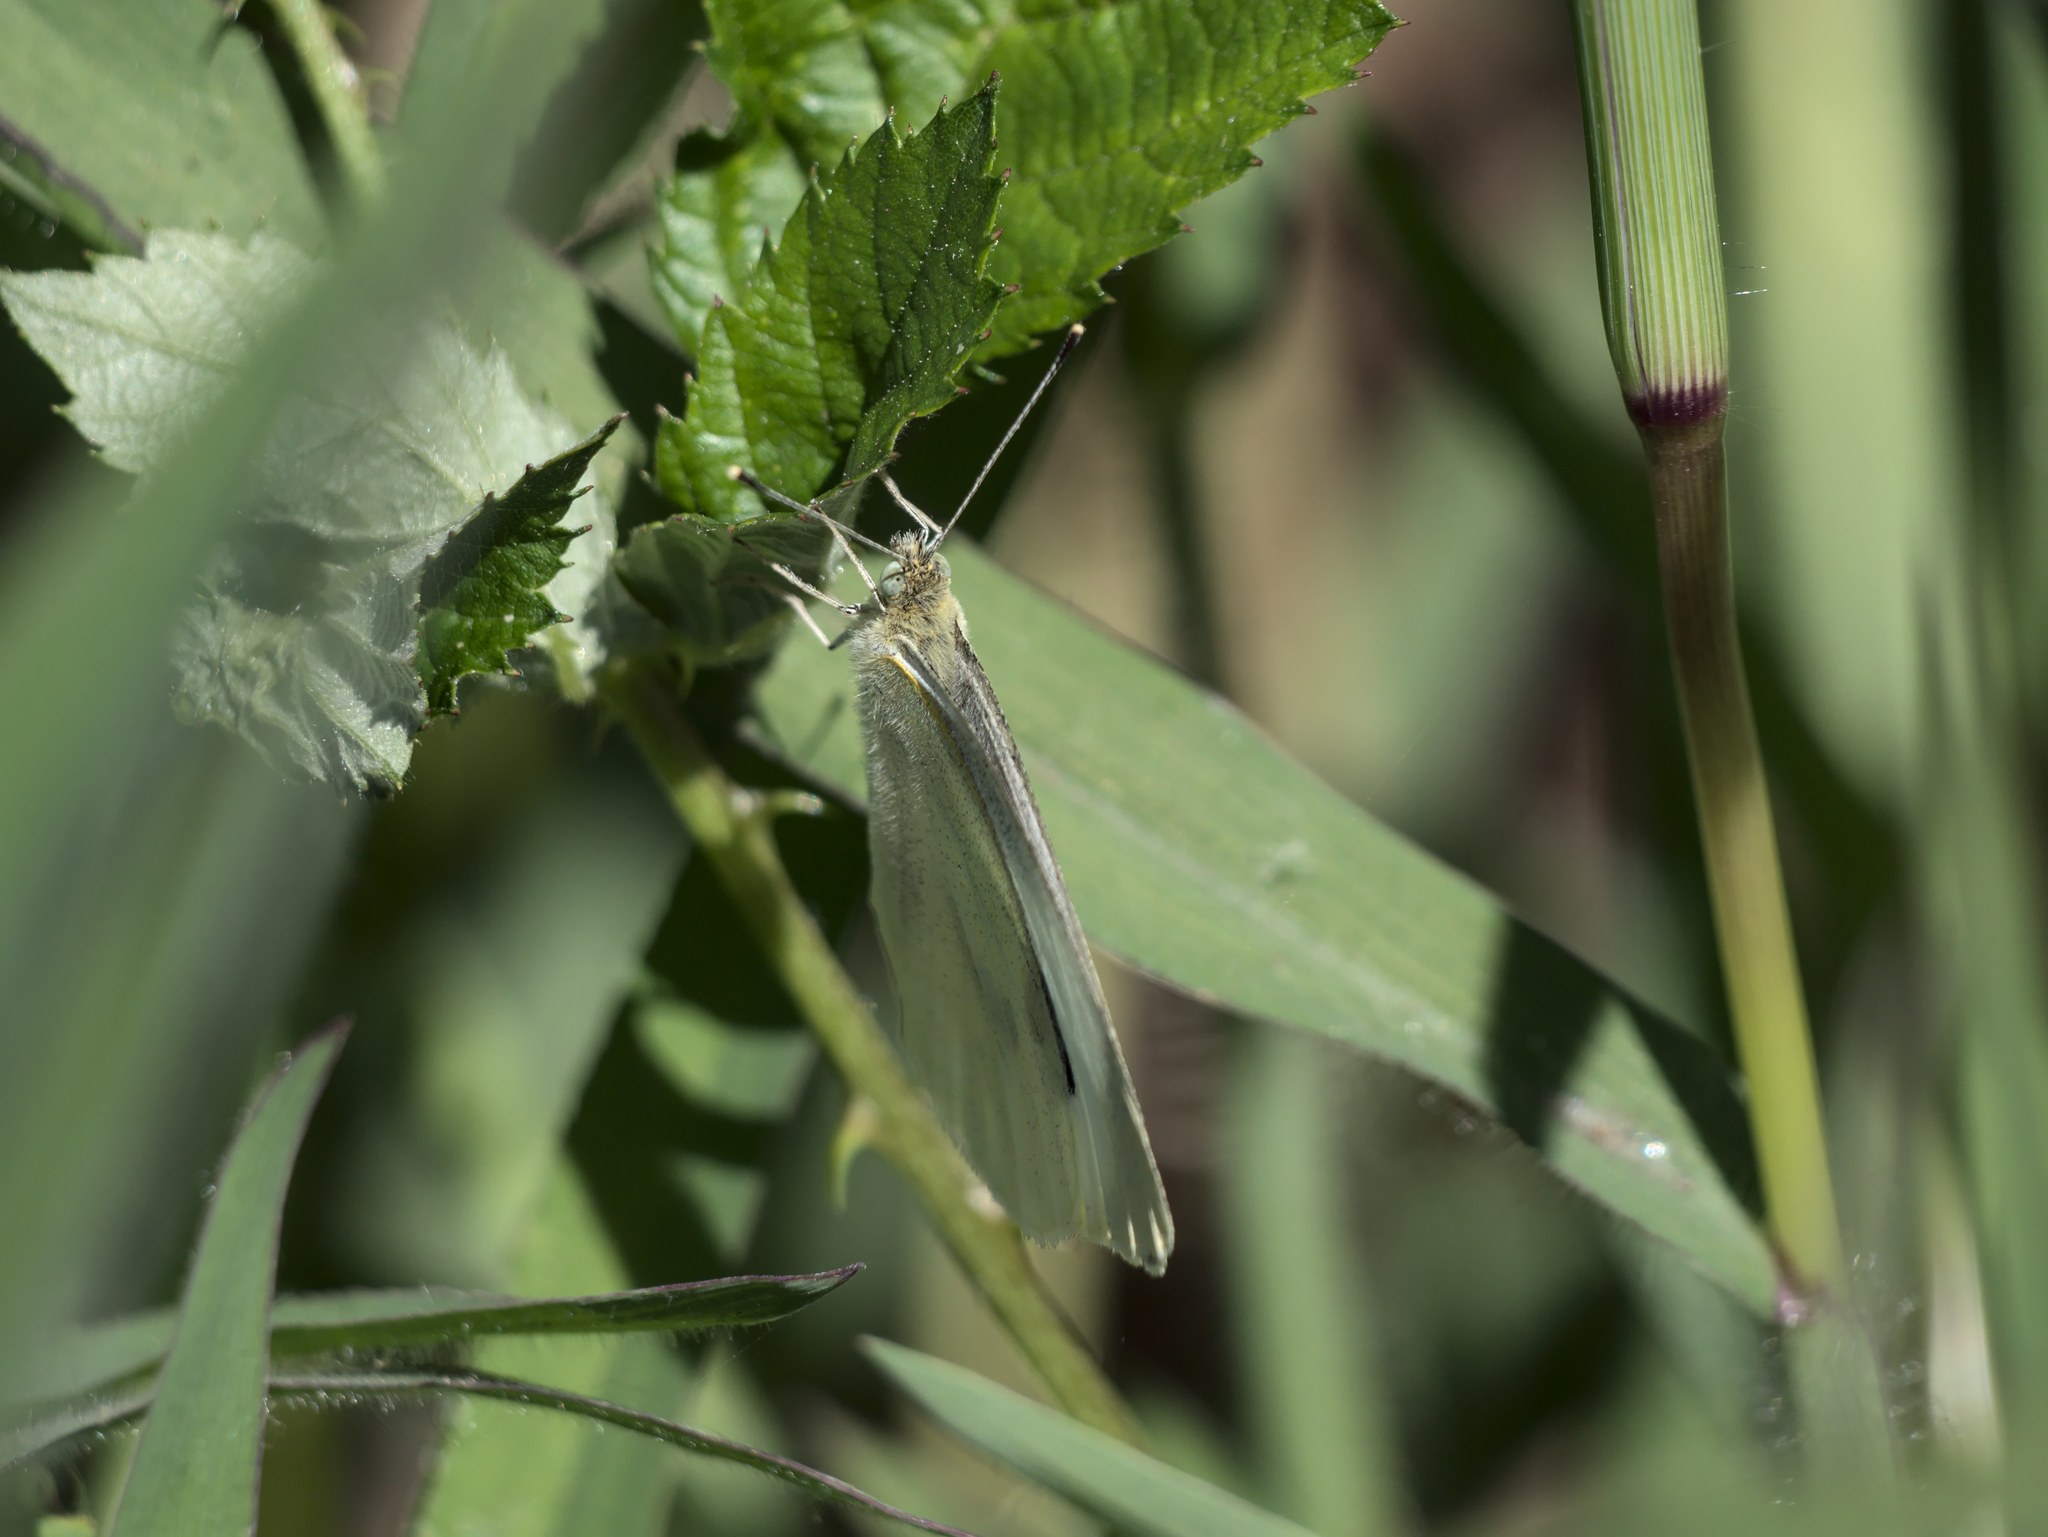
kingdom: Animalia
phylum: Arthropoda
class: Insecta
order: Lepidoptera
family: Pieridae
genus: Pieris
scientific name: Pieris rapae
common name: Small white
